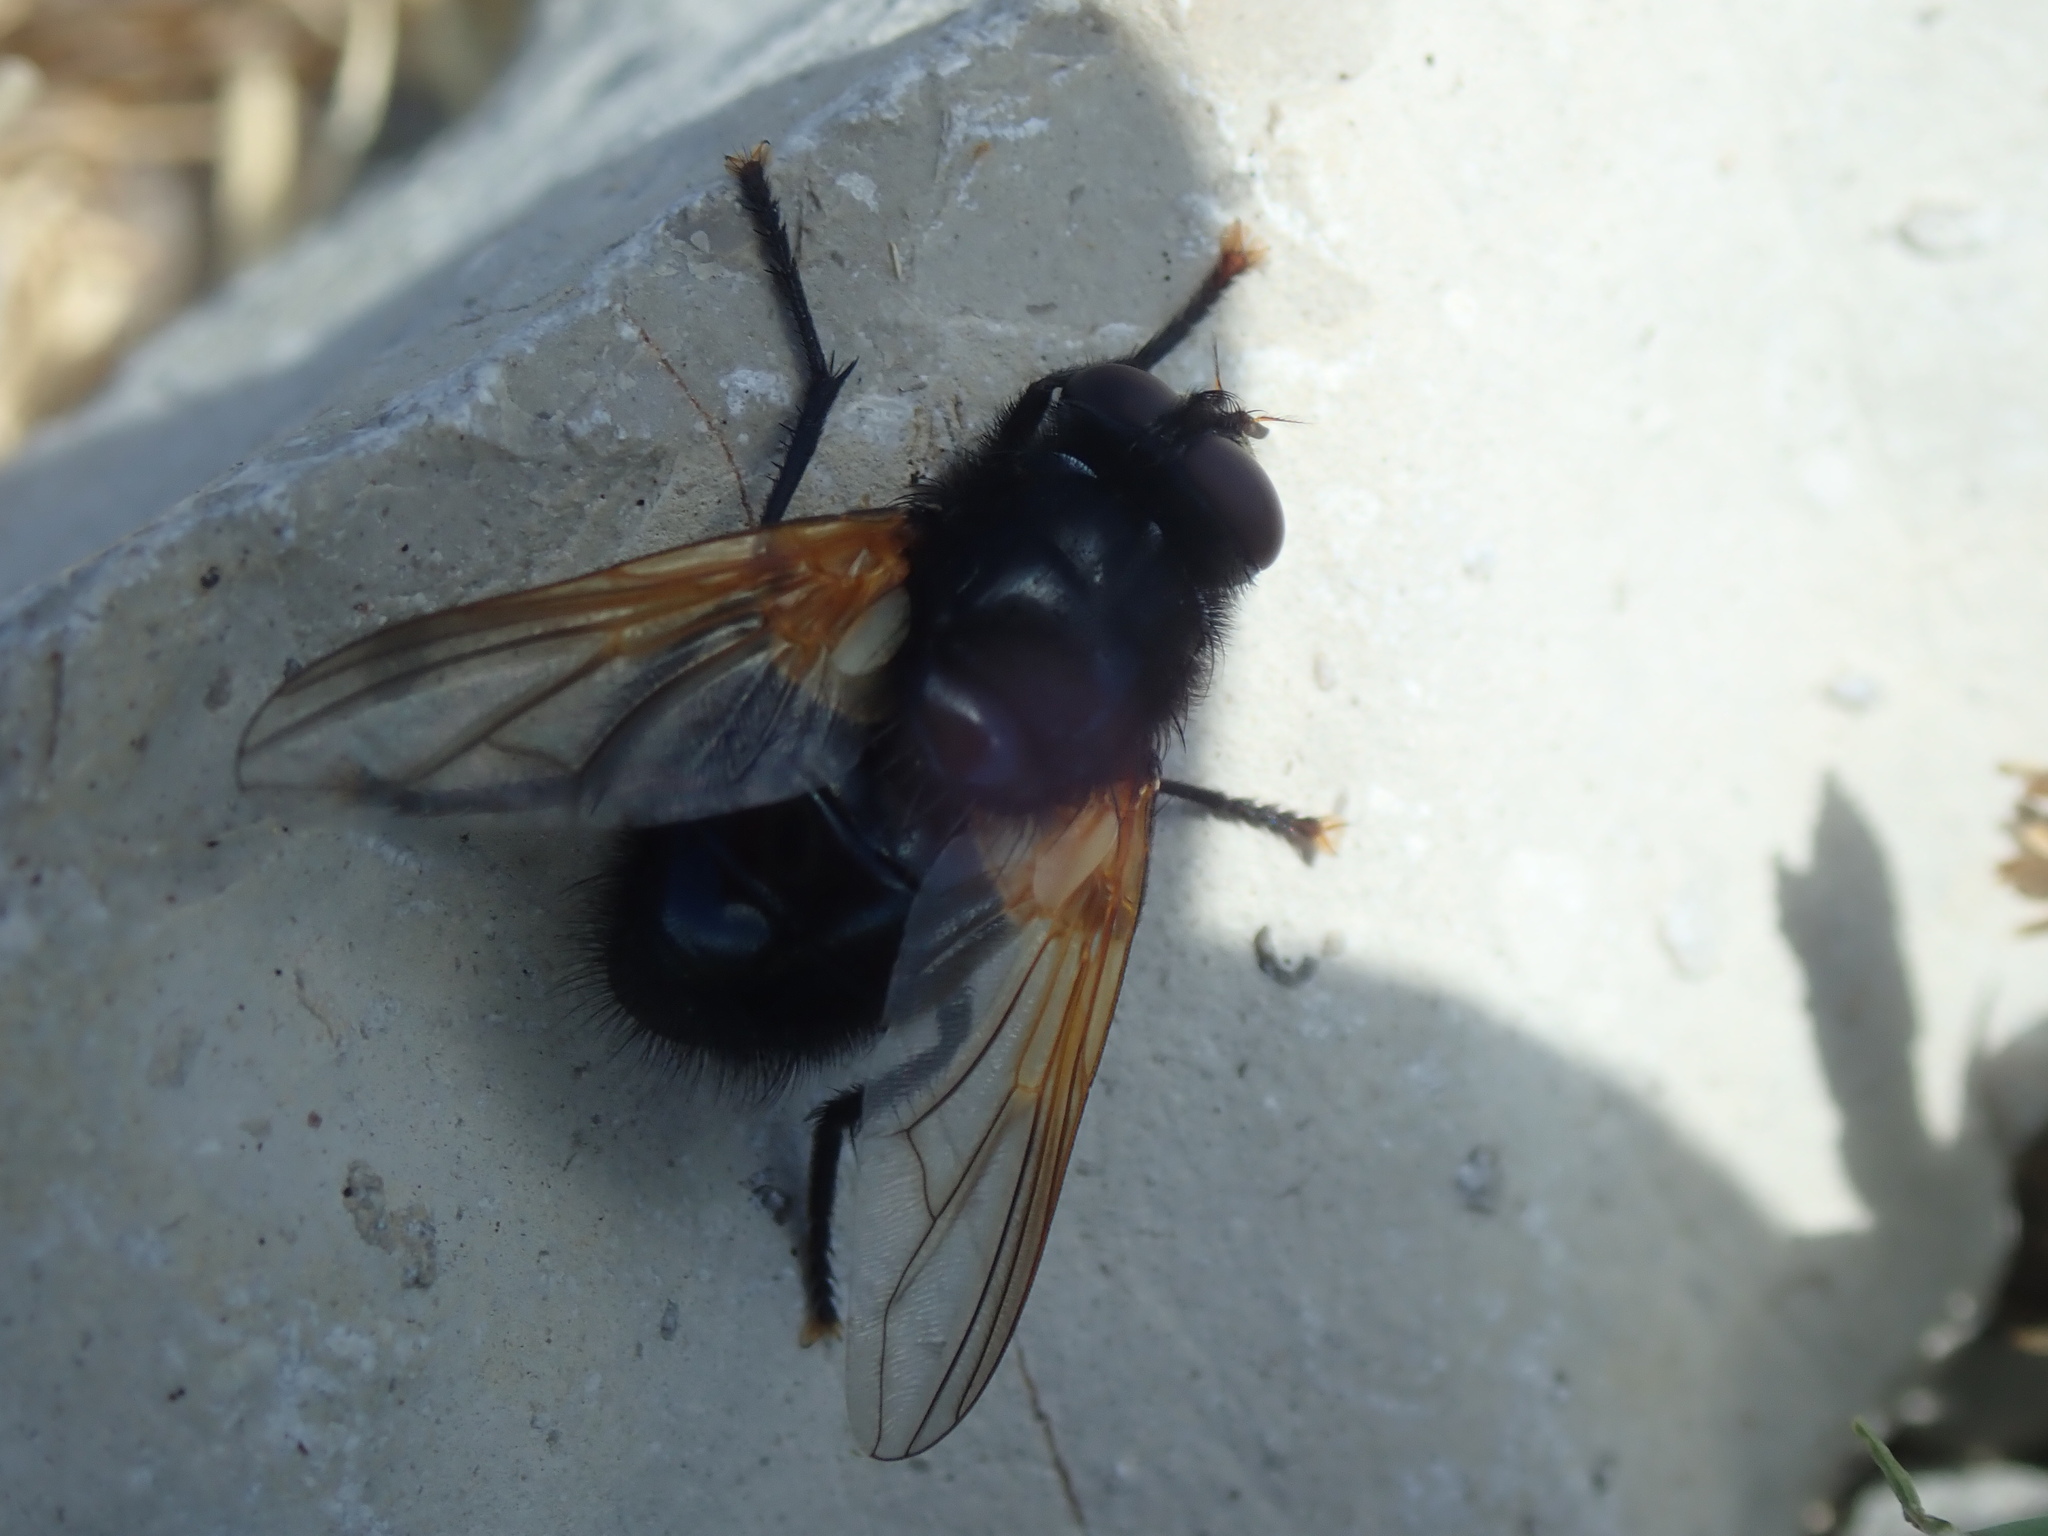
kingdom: Animalia
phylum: Arthropoda
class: Insecta
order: Diptera
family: Muscidae
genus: Mesembrina
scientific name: Mesembrina meridiana
